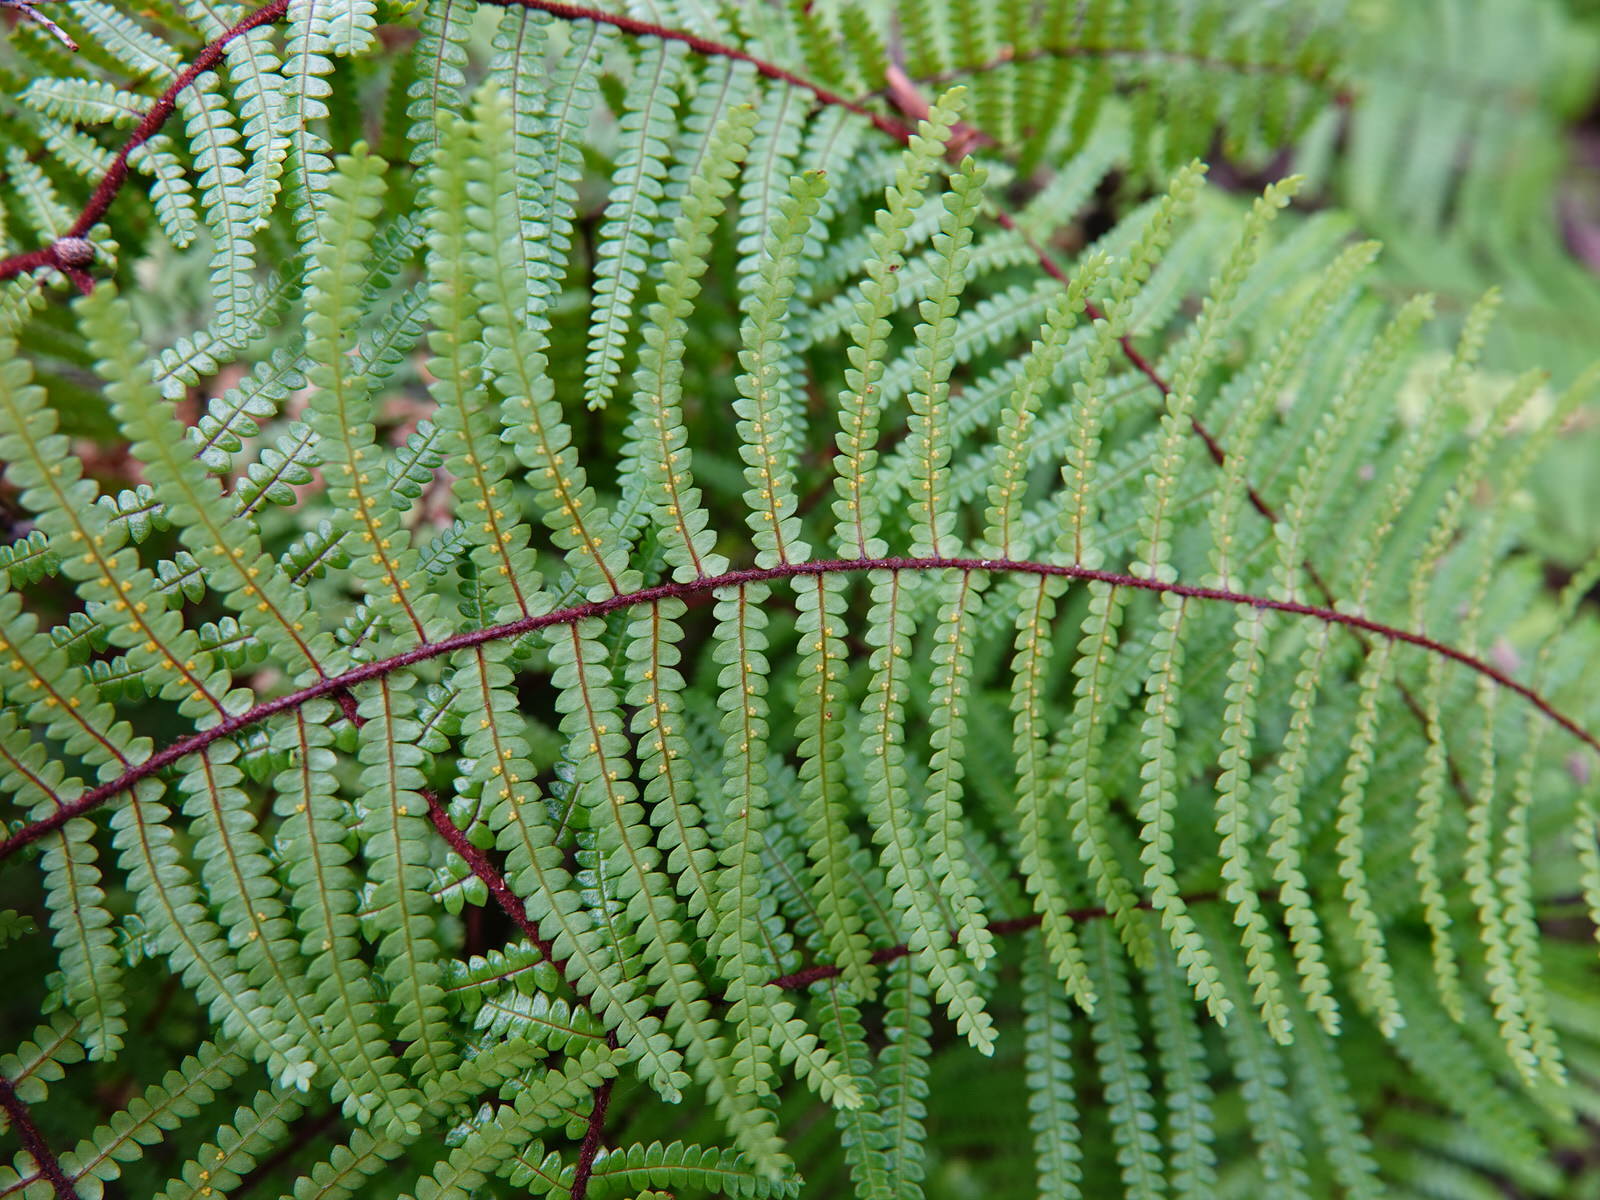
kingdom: Plantae
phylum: Tracheophyta
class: Polypodiopsida
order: Gleicheniales
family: Gleicheniaceae
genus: Gleichenia
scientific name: Gleichenia microphylla
